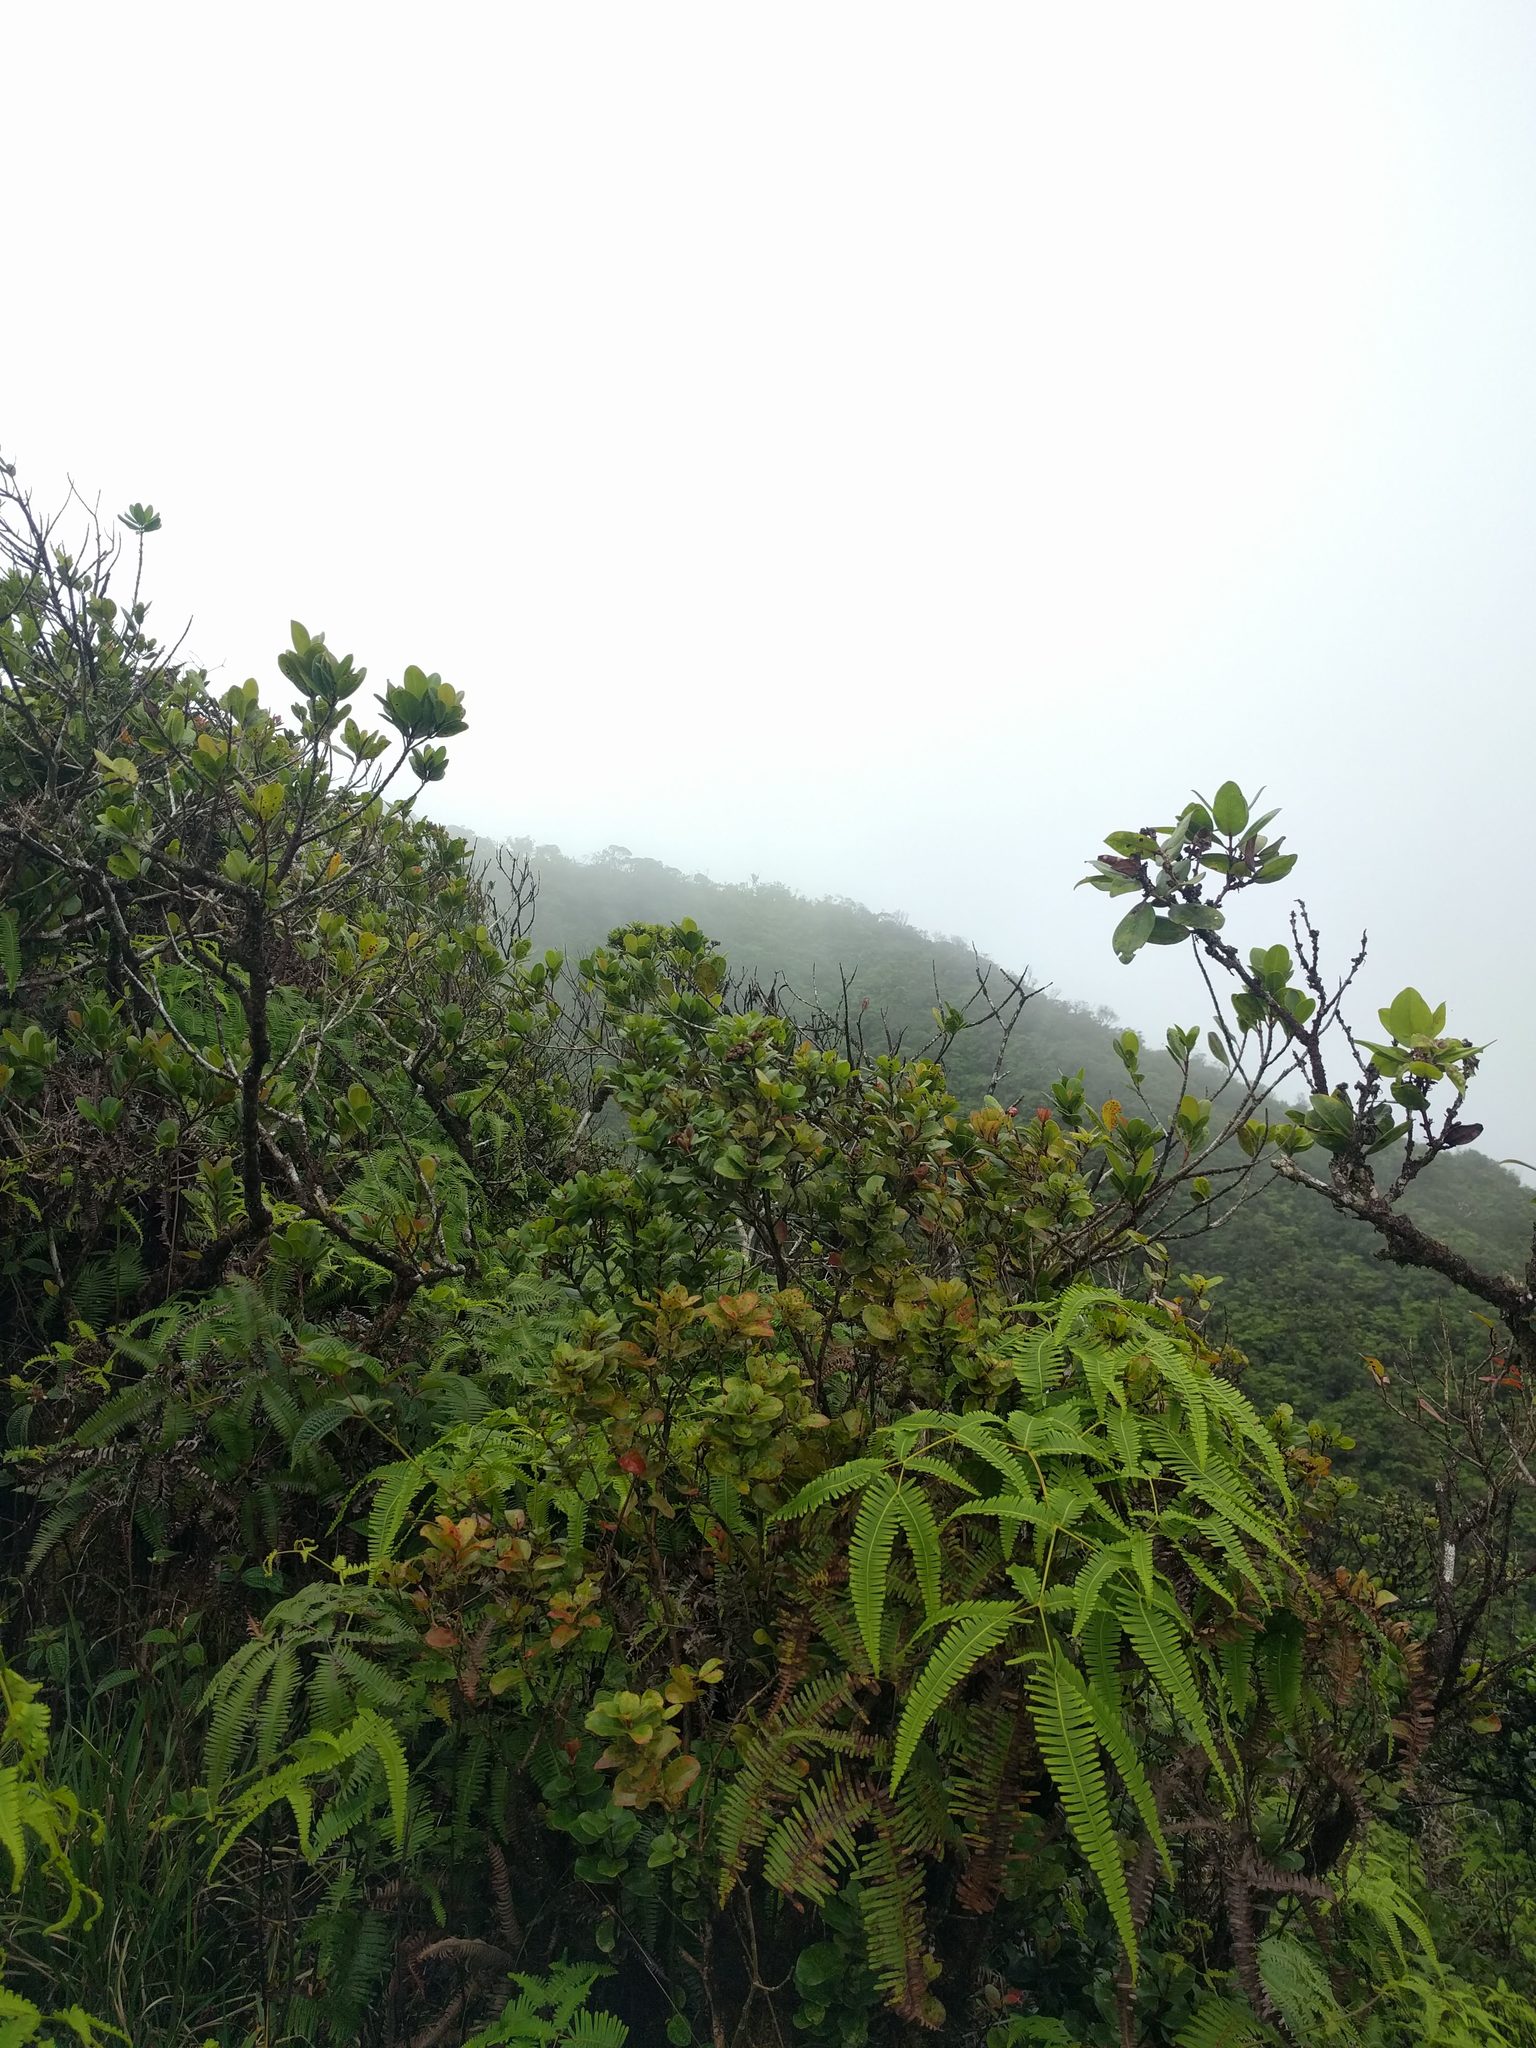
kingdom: Plantae
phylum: Tracheophyta
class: Polypodiopsida
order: Gleicheniales
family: Gleicheniaceae
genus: Dicranopteris
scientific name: Dicranopteris linearis
